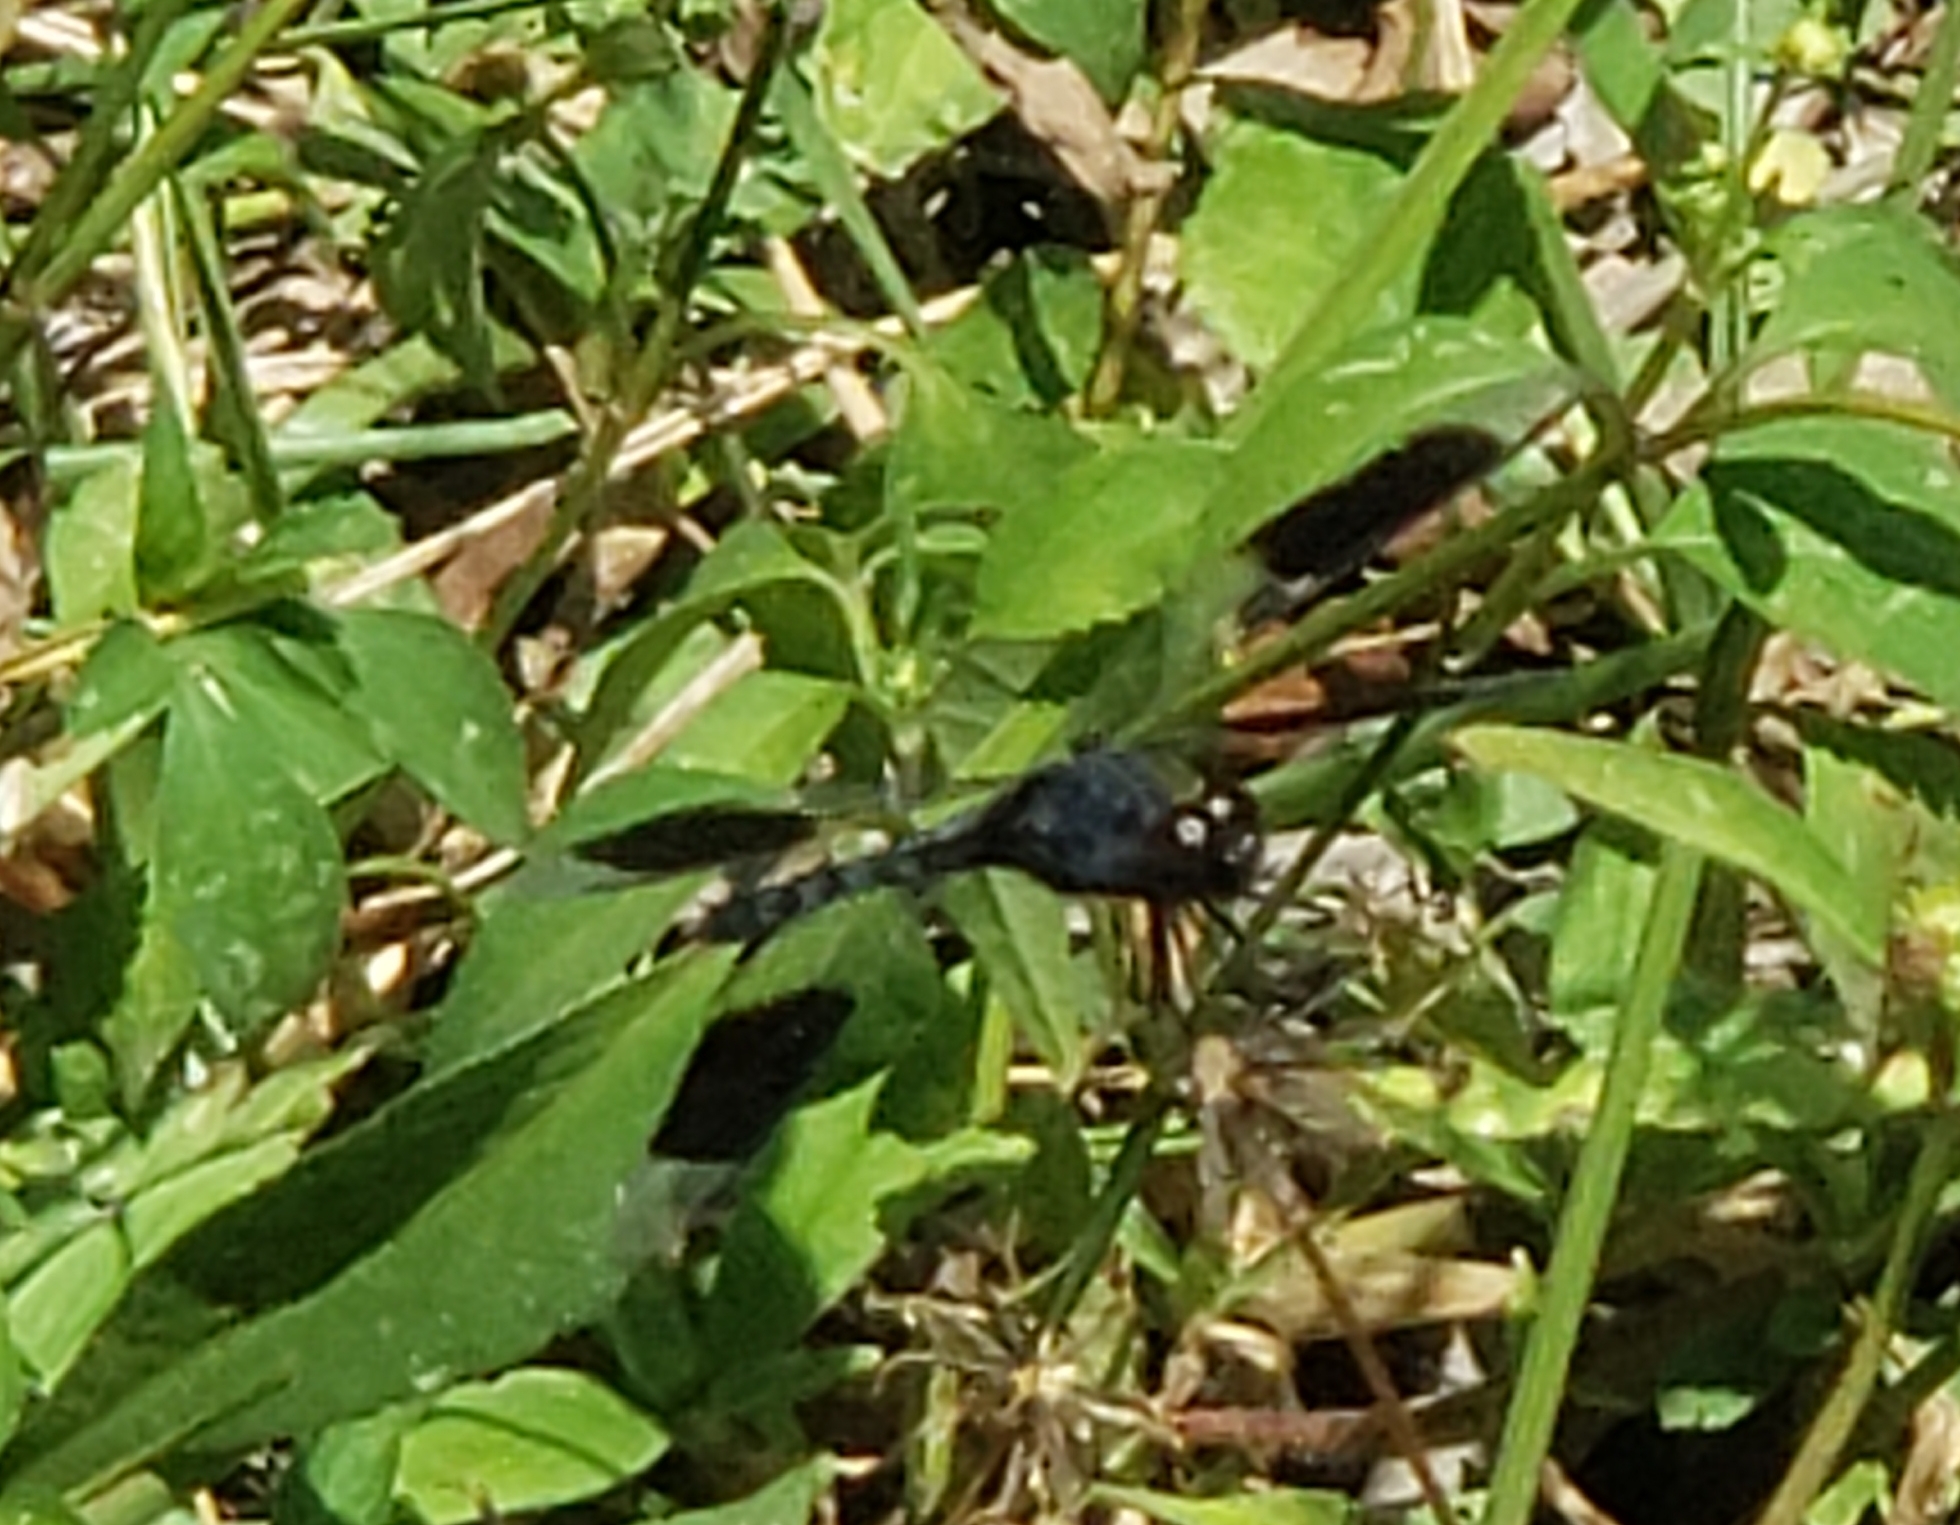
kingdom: Animalia
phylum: Arthropoda
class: Insecta
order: Odonata
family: Libellulidae
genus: Erythrodiplax
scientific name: Erythrodiplax umbrata
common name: Band-winged dragonlet
